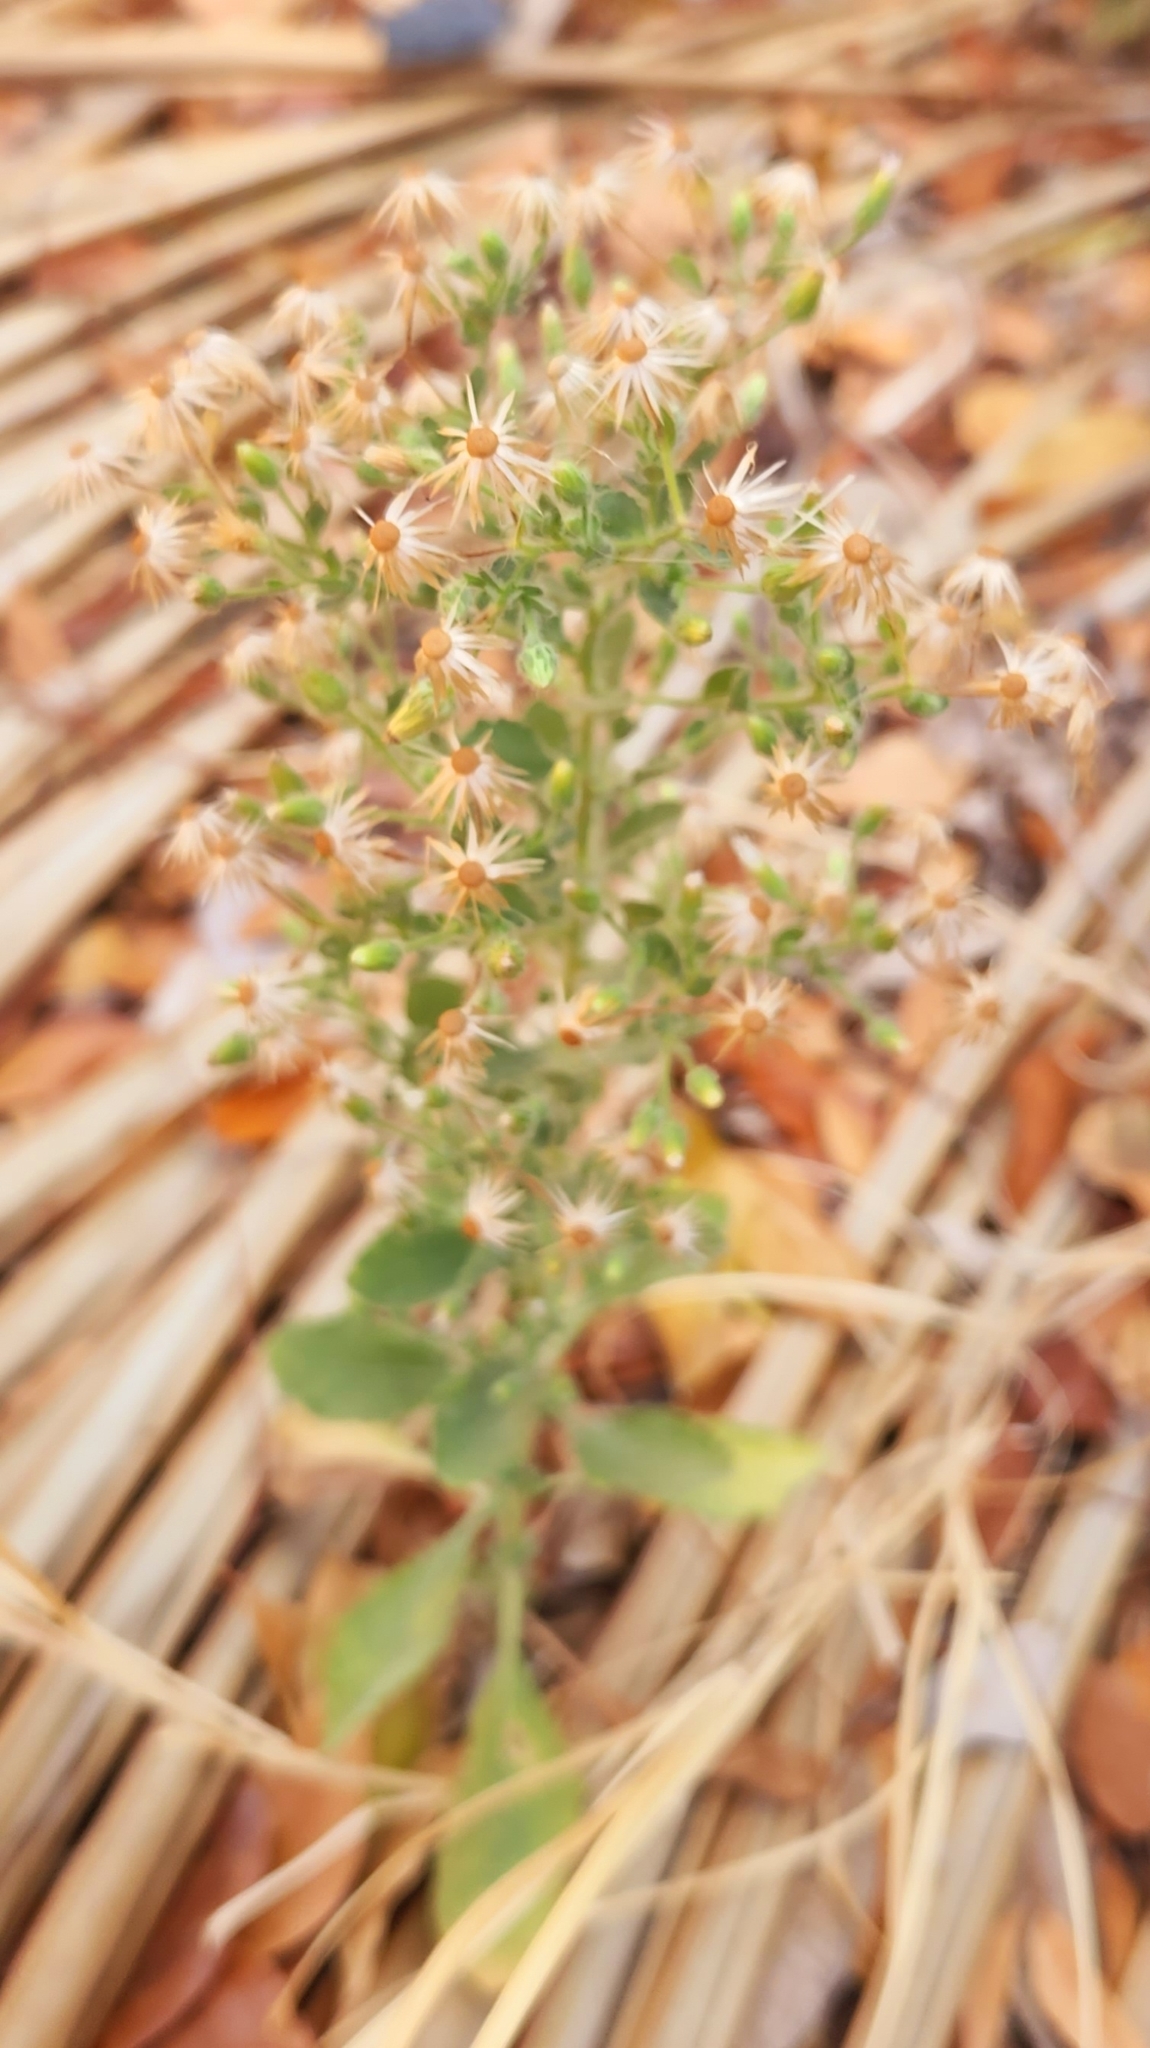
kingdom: Plantae
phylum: Tracheophyta
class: Magnoliopsida
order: Asterales
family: Asteraceae
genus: Brickellia
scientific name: Brickellia peninsularis
